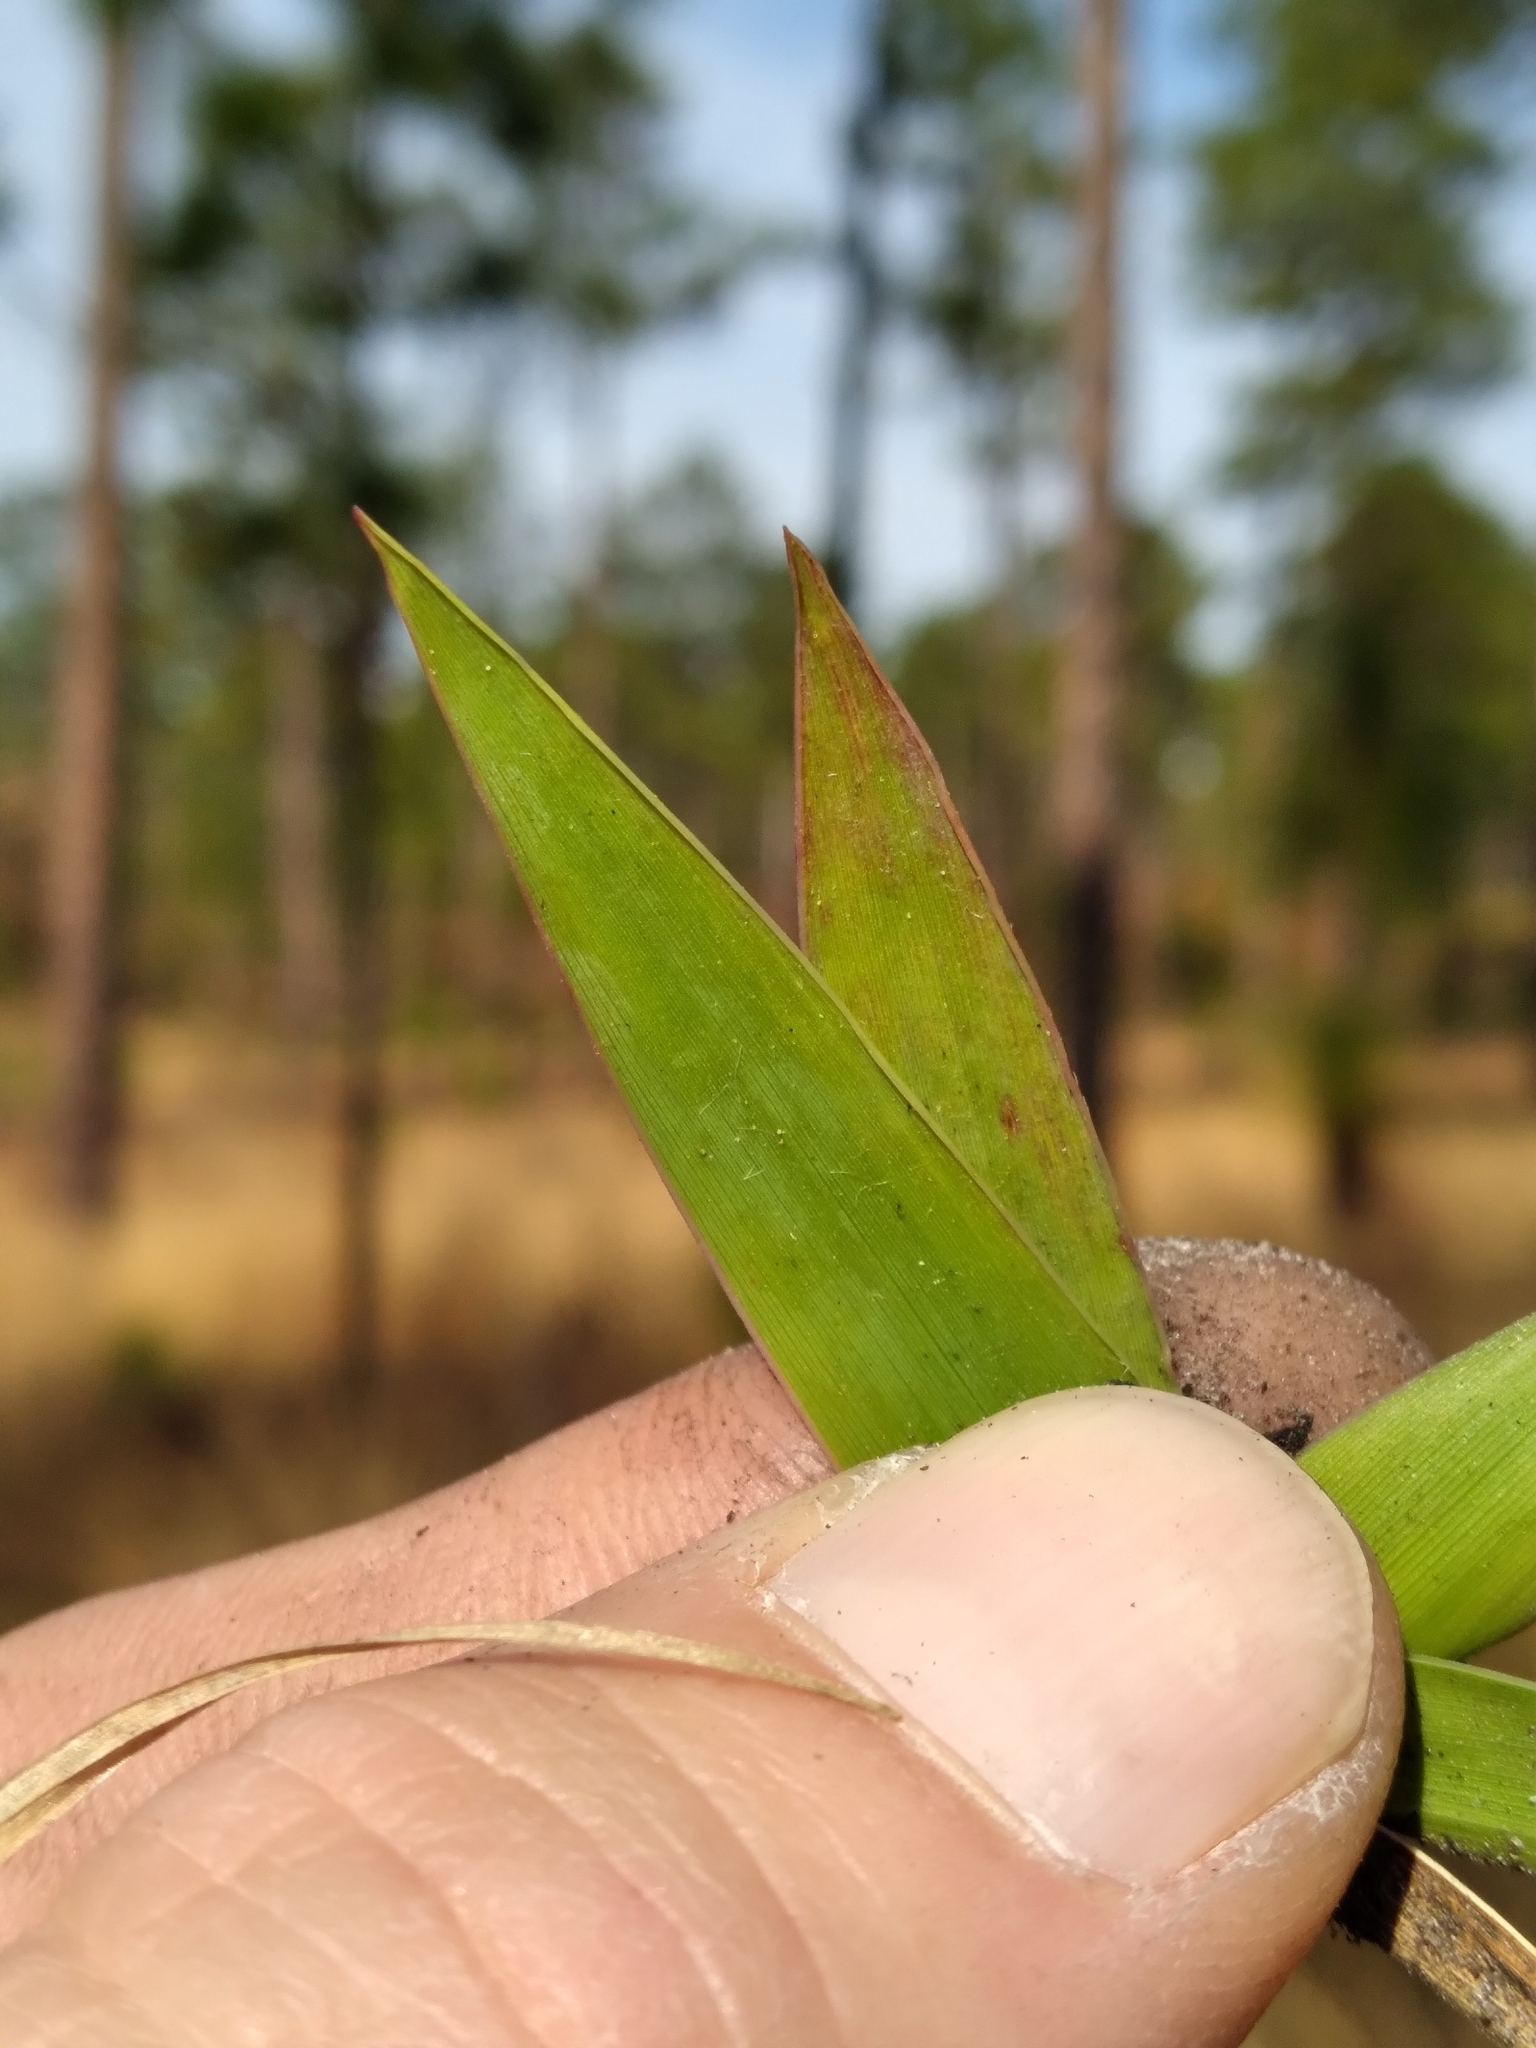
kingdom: Plantae
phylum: Tracheophyta
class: Liliopsida
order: Poales
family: Poaceae
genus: Dichanthelium
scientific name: Dichanthelium tenue
